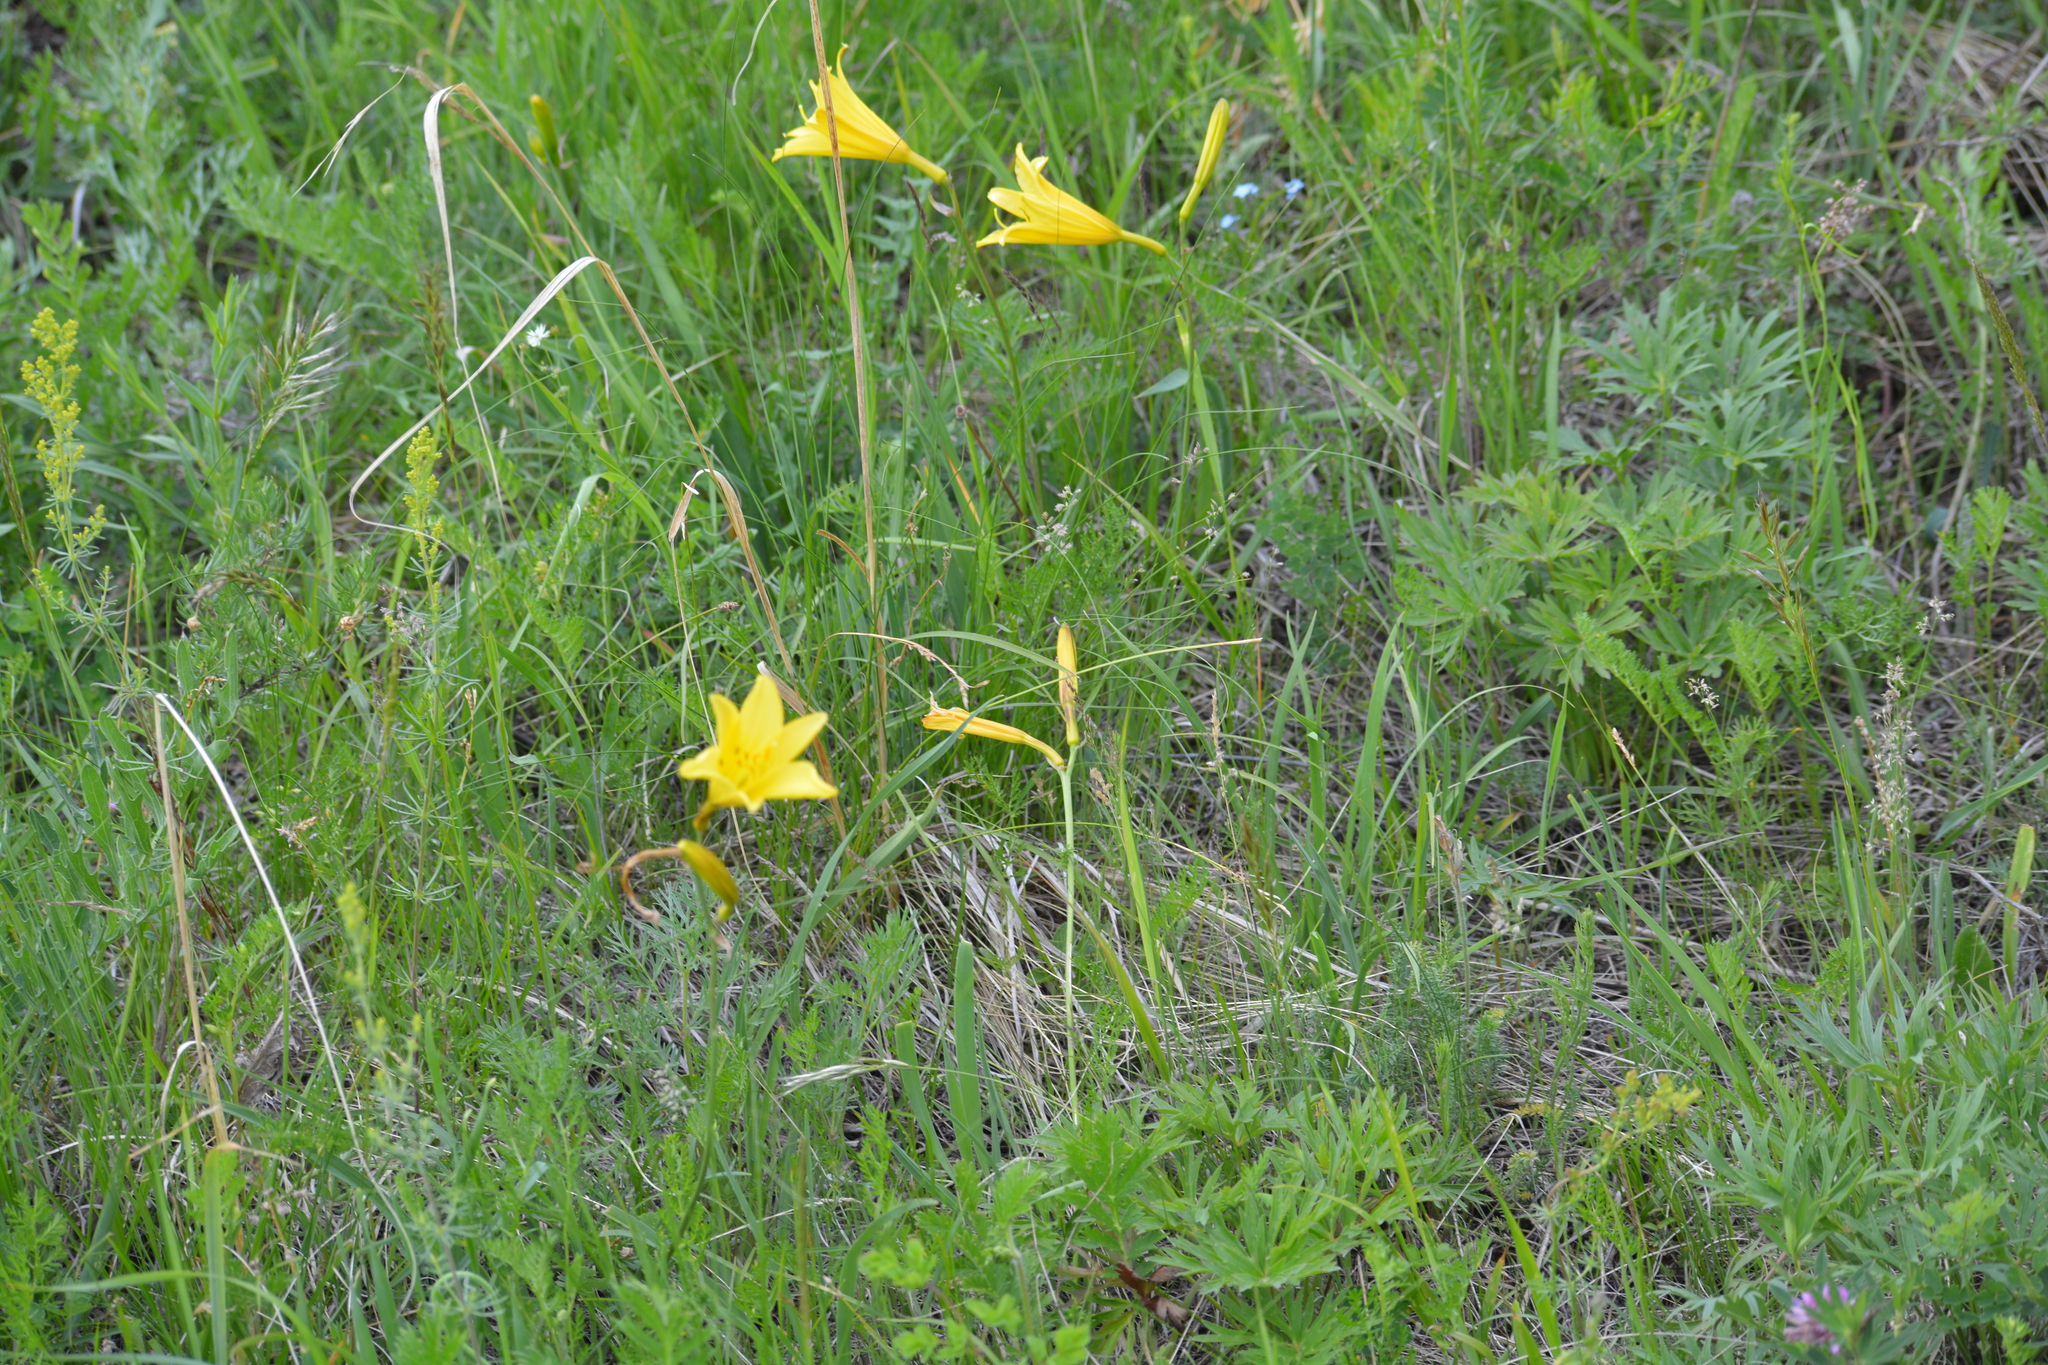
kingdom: Plantae
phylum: Tracheophyta
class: Liliopsida
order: Asparagales
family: Asphodelaceae
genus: Hemerocallis
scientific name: Hemerocallis minor
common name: Small daylily
